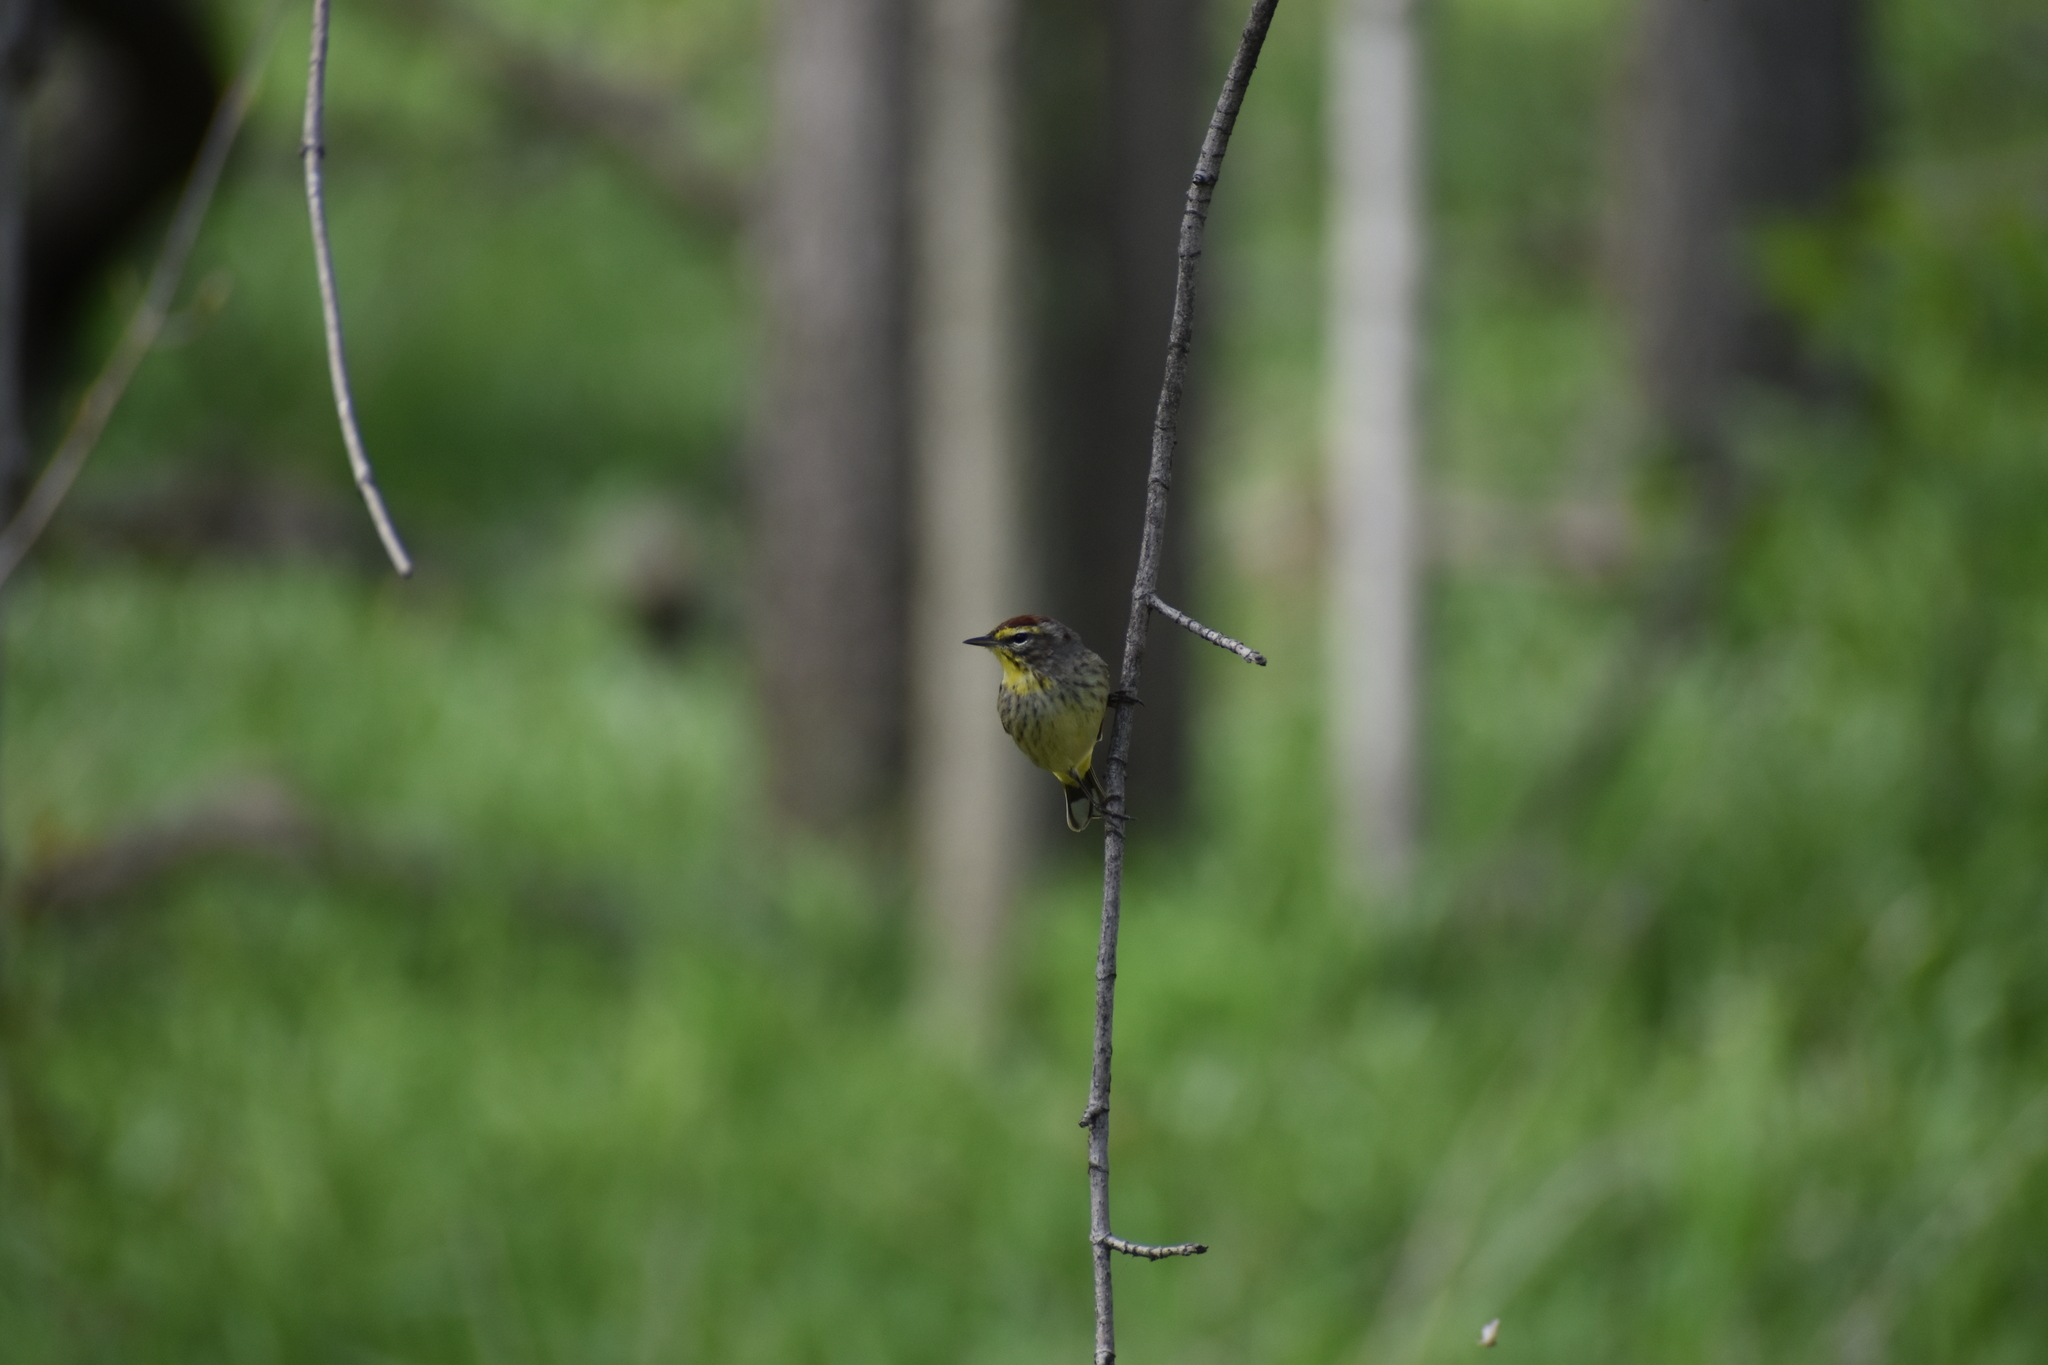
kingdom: Animalia
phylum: Chordata
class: Aves
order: Passeriformes
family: Parulidae
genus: Setophaga
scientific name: Setophaga palmarum
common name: Palm warbler
